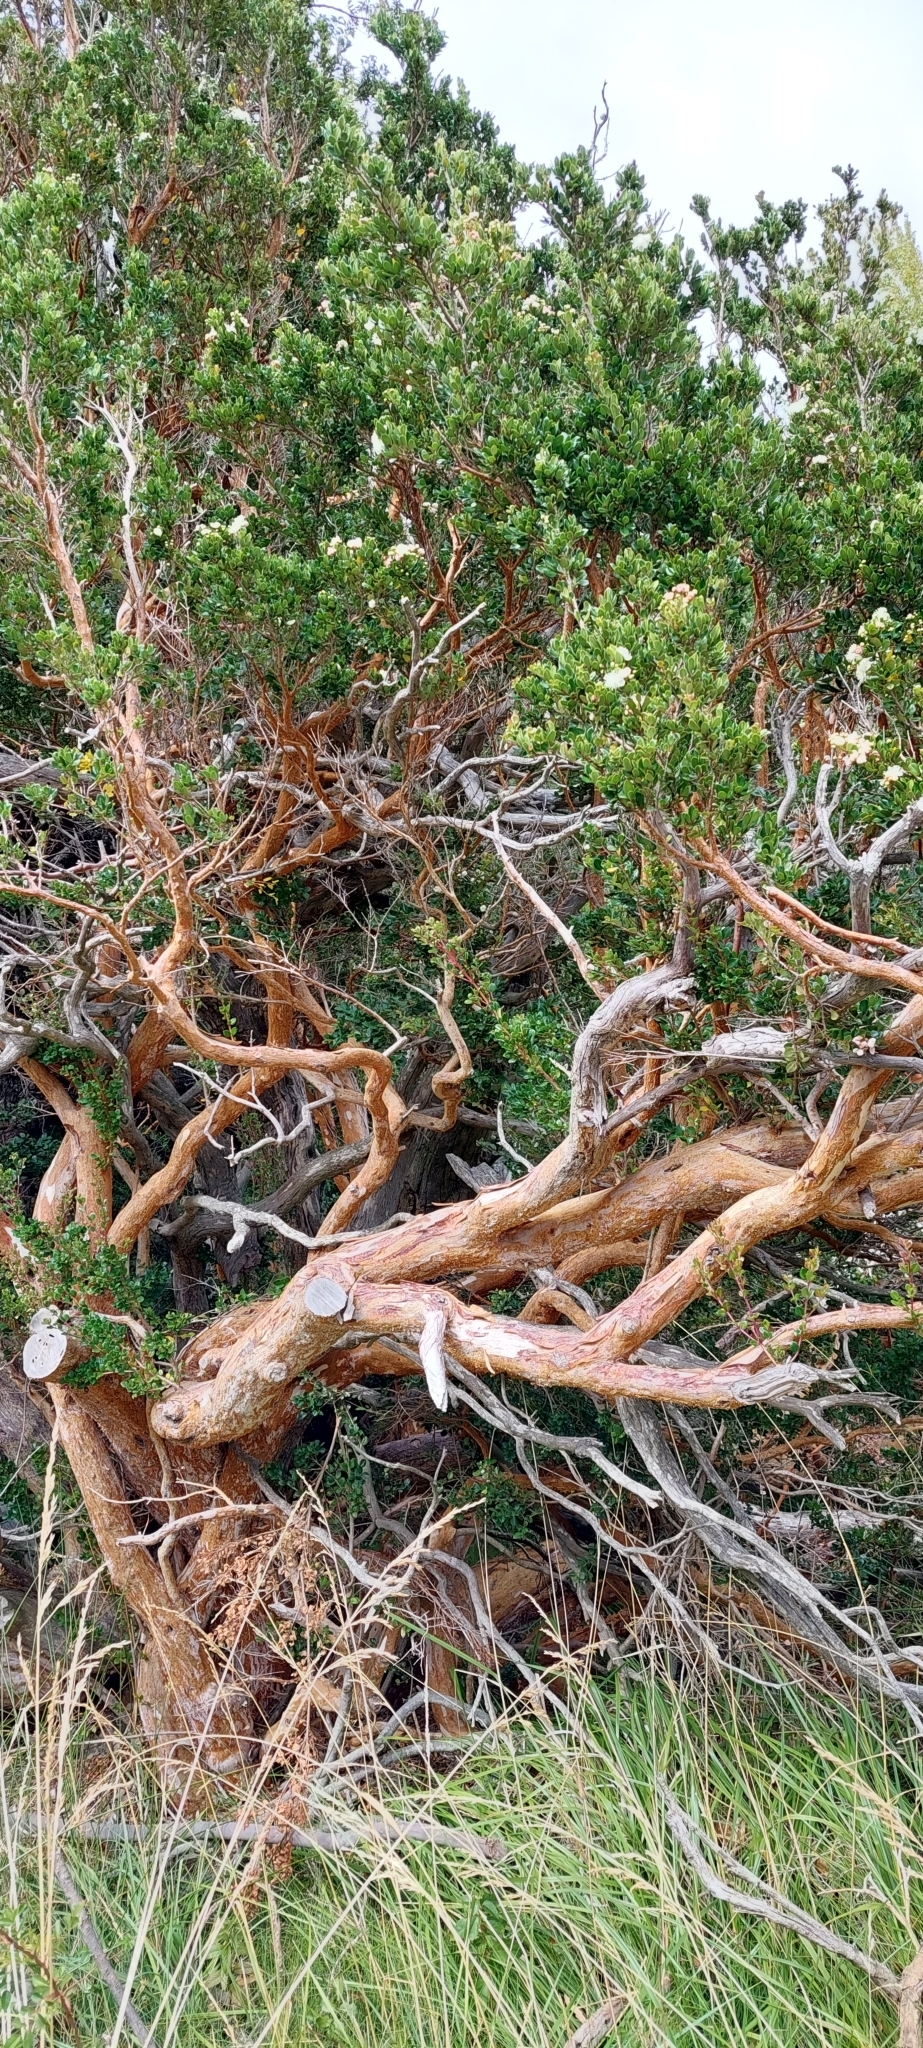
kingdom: Plantae
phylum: Tracheophyta
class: Magnoliopsida
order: Myrtales
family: Myrtaceae
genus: Luma
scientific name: Luma apiculata
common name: Chilean myrtle
